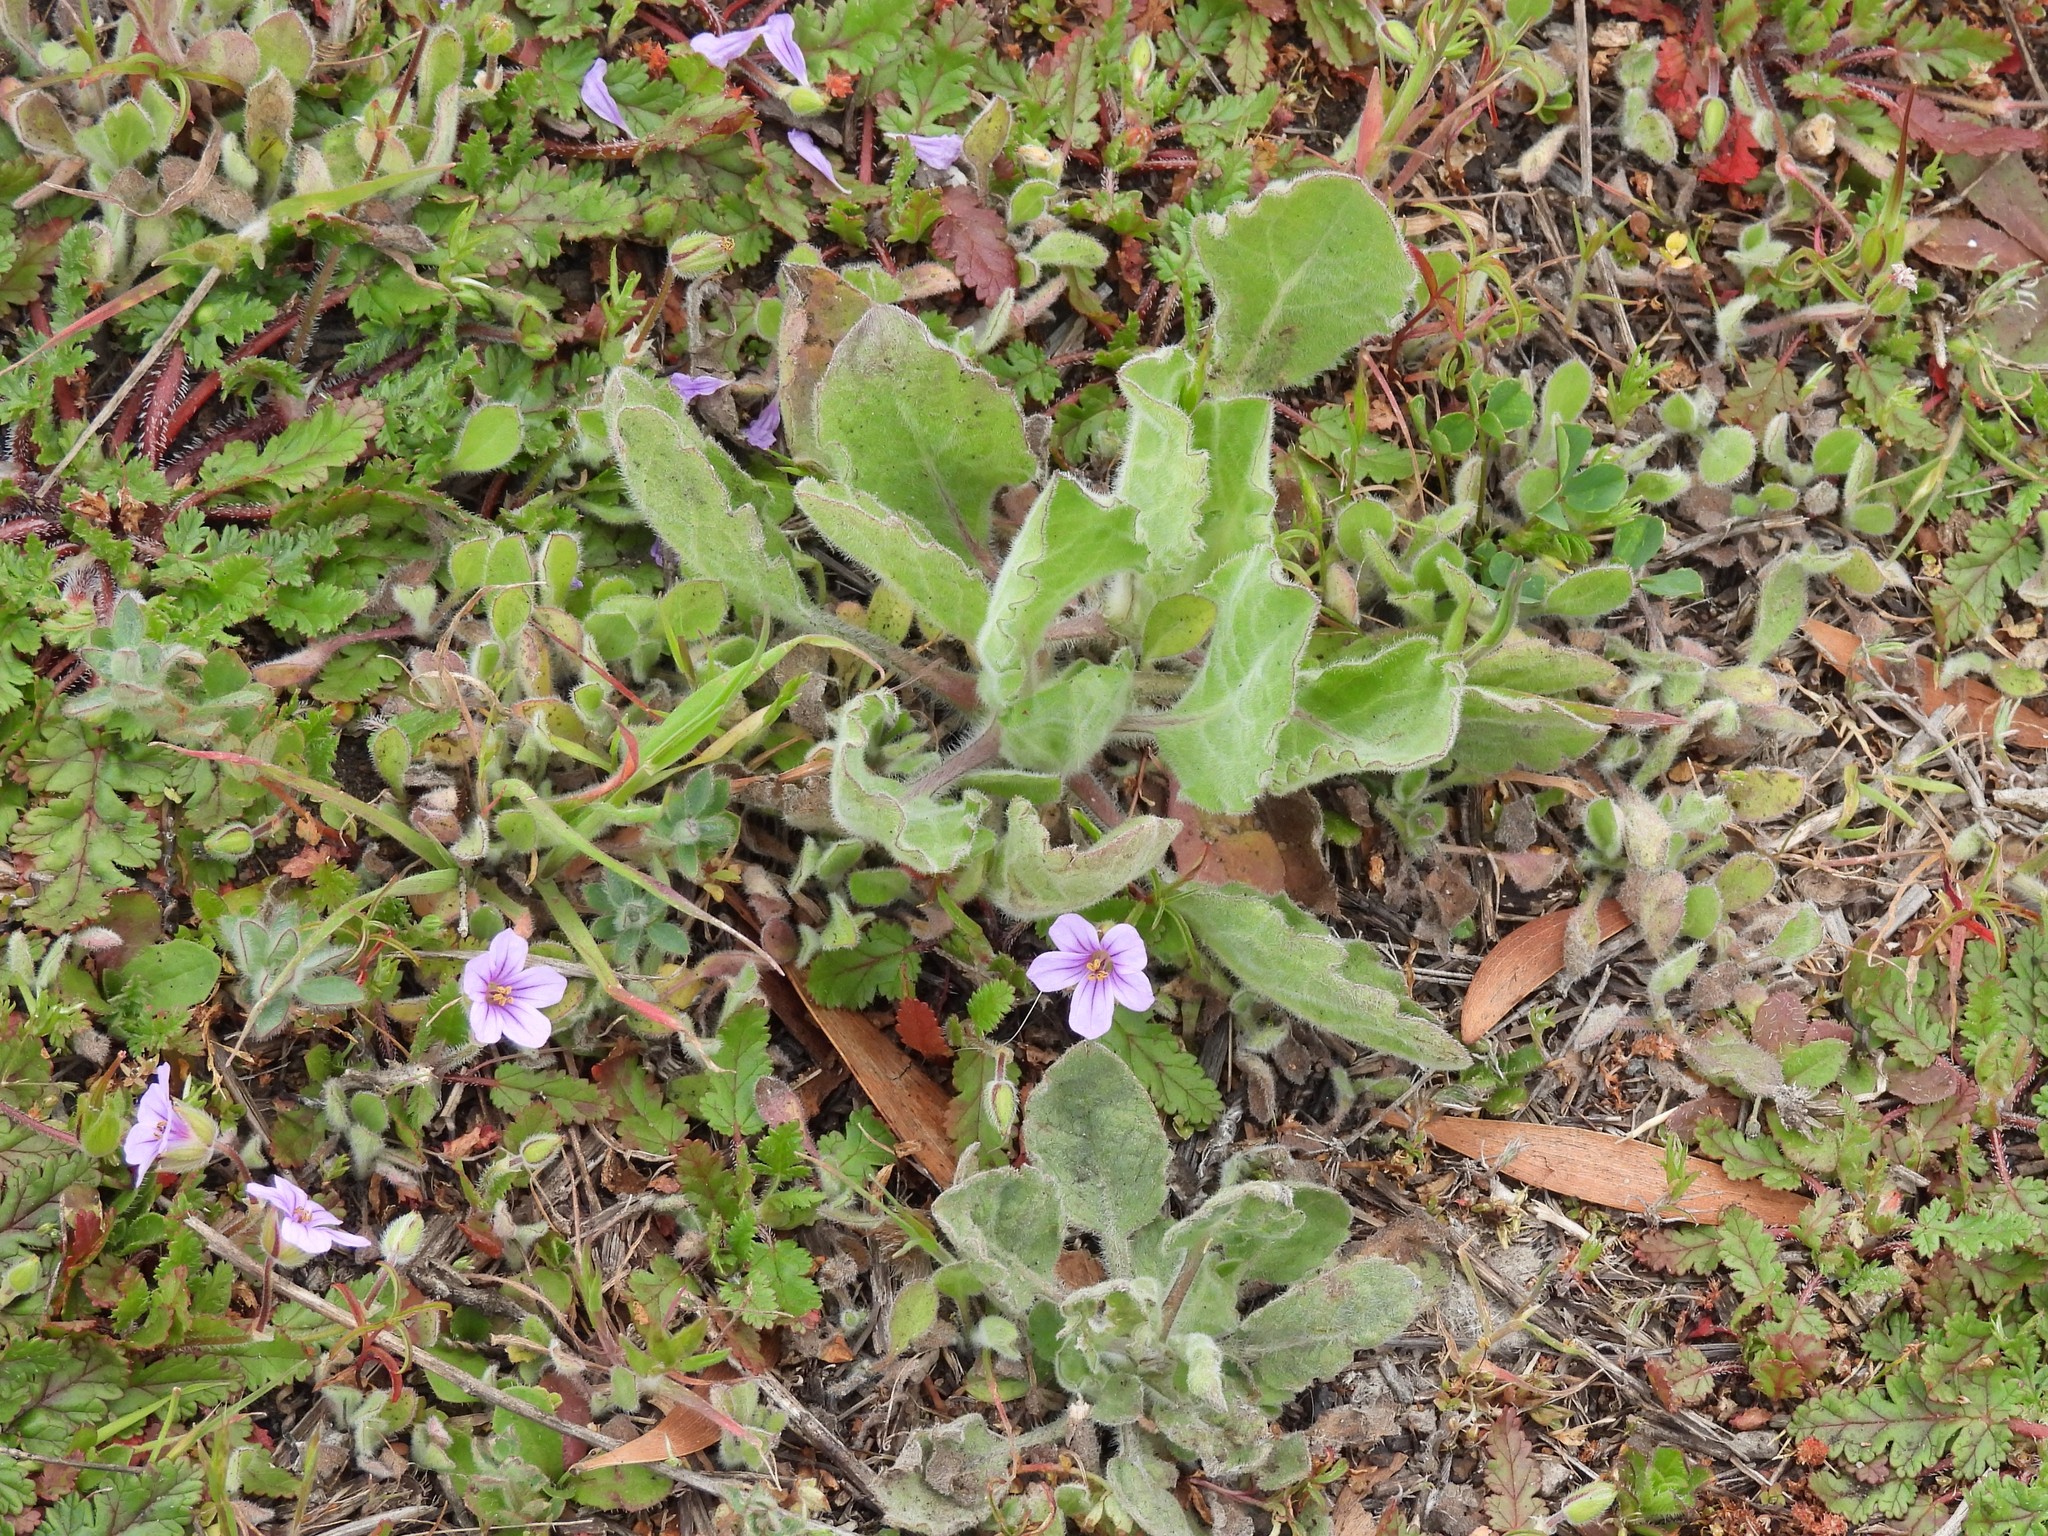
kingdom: Plantae
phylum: Tracheophyta
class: Magnoliopsida
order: Geraniales
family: Geraniaceae
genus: Erodium
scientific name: Erodium botrys
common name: Mediterranean stork's-bill
